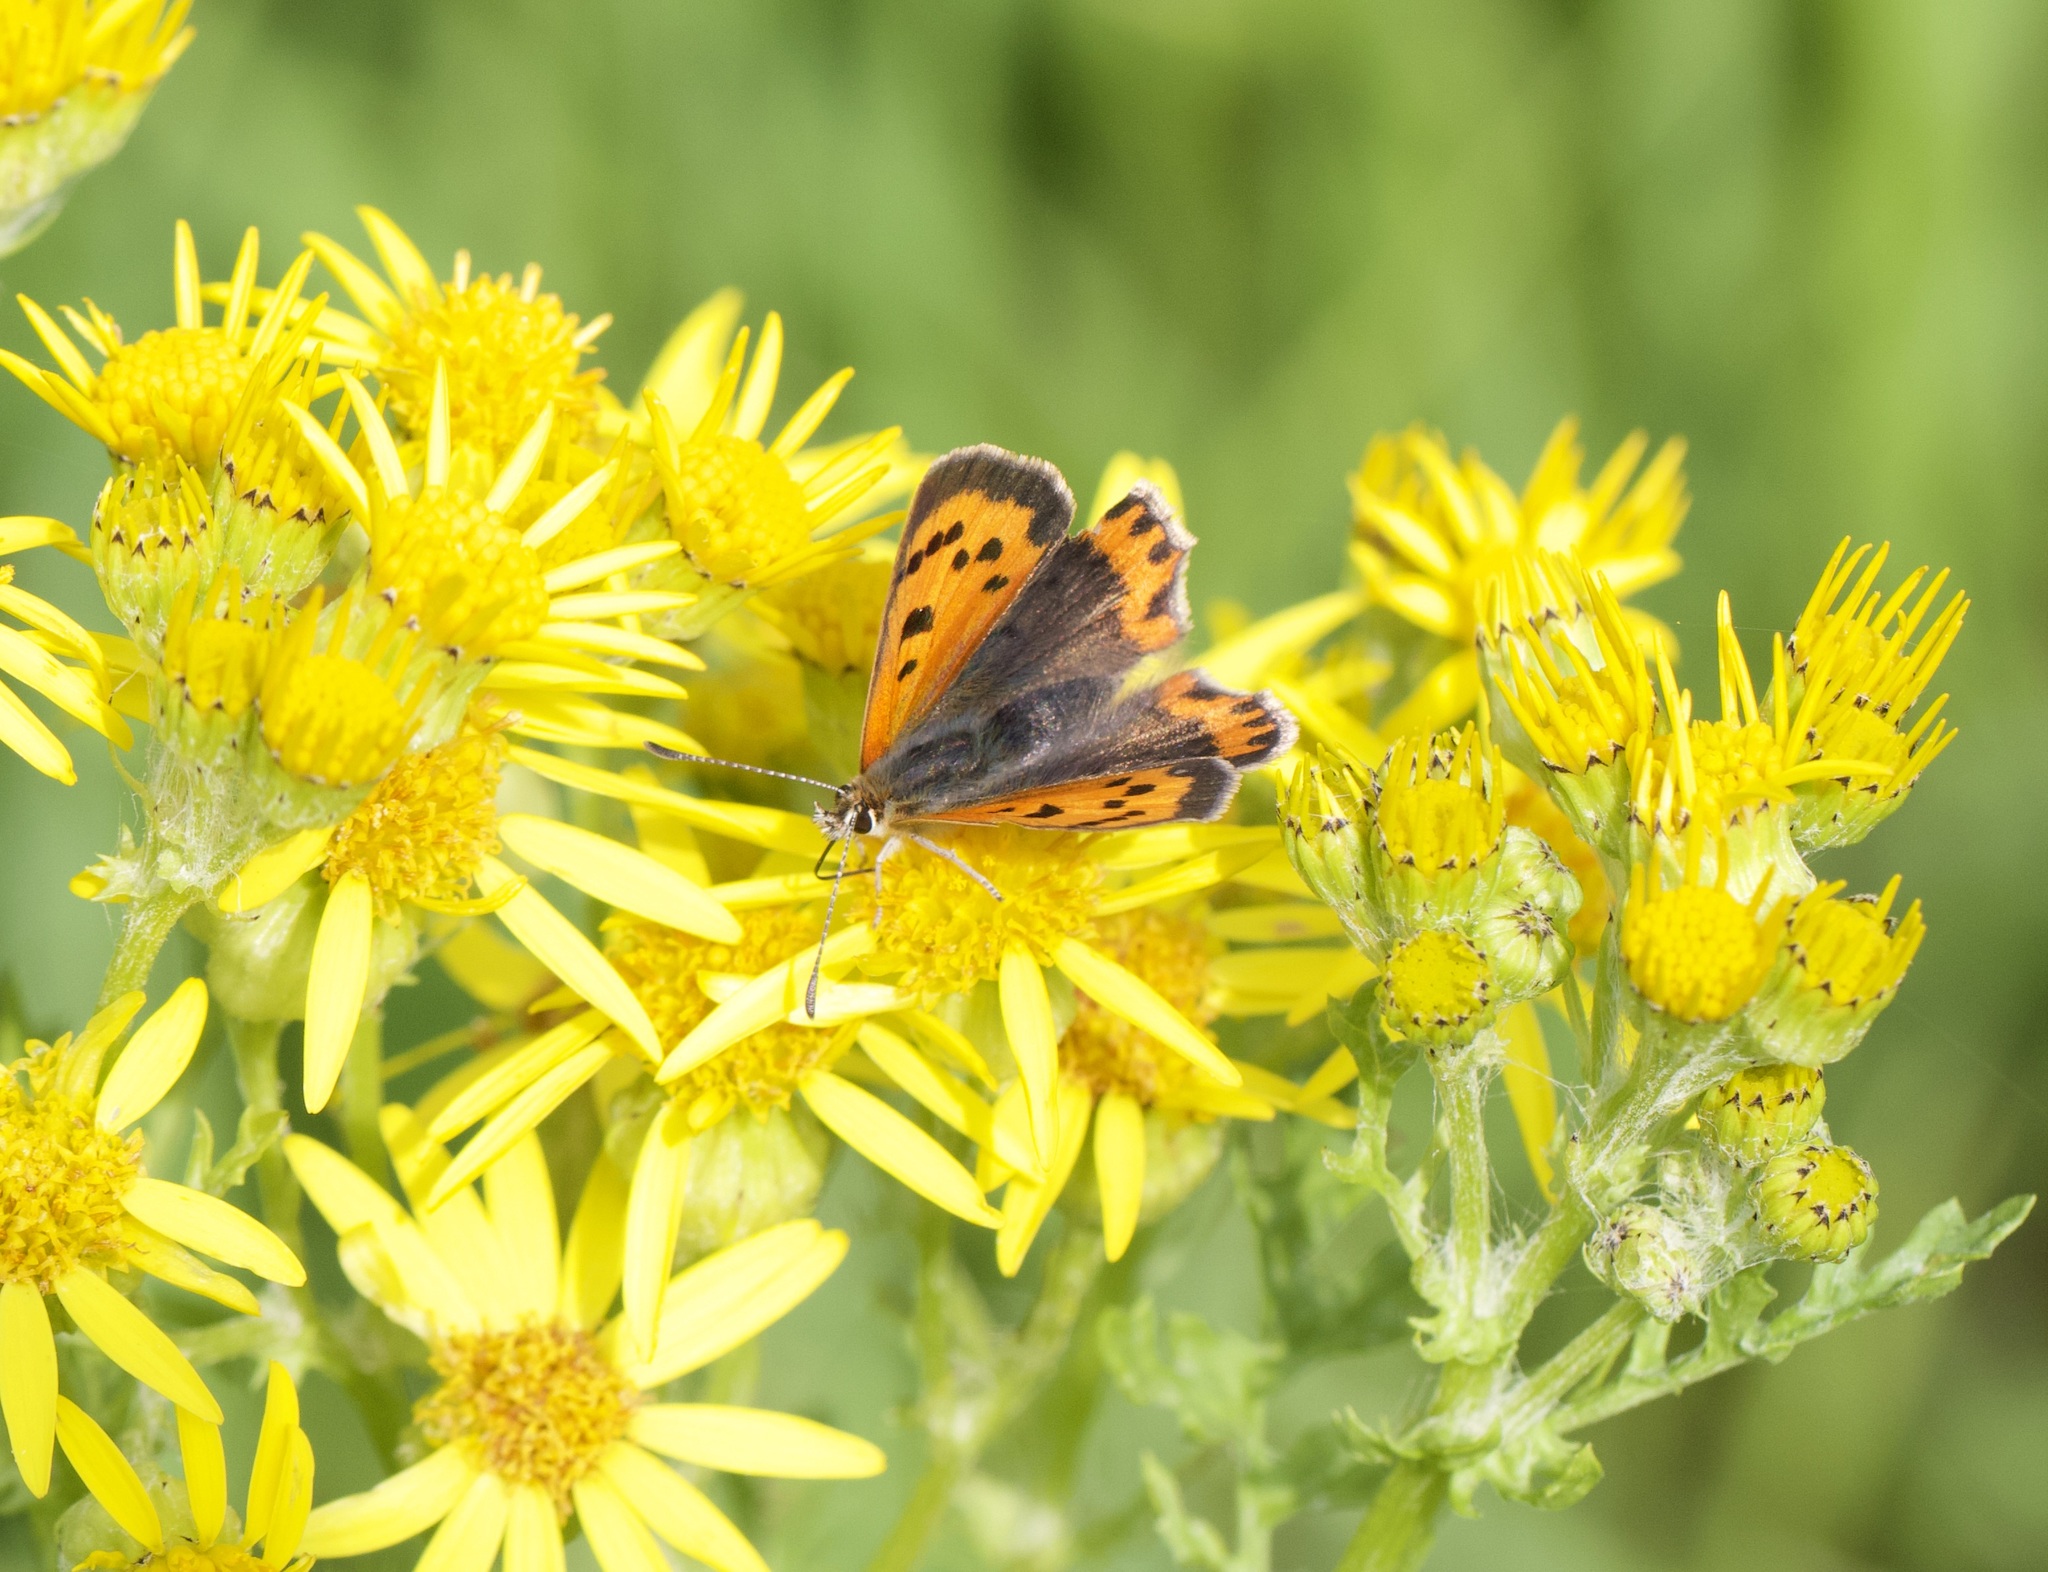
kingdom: Animalia
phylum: Arthropoda
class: Insecta
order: Lepidoptera
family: Lycaenidae
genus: Lycaena
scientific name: Lycaena phlaeas
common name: Small copper
